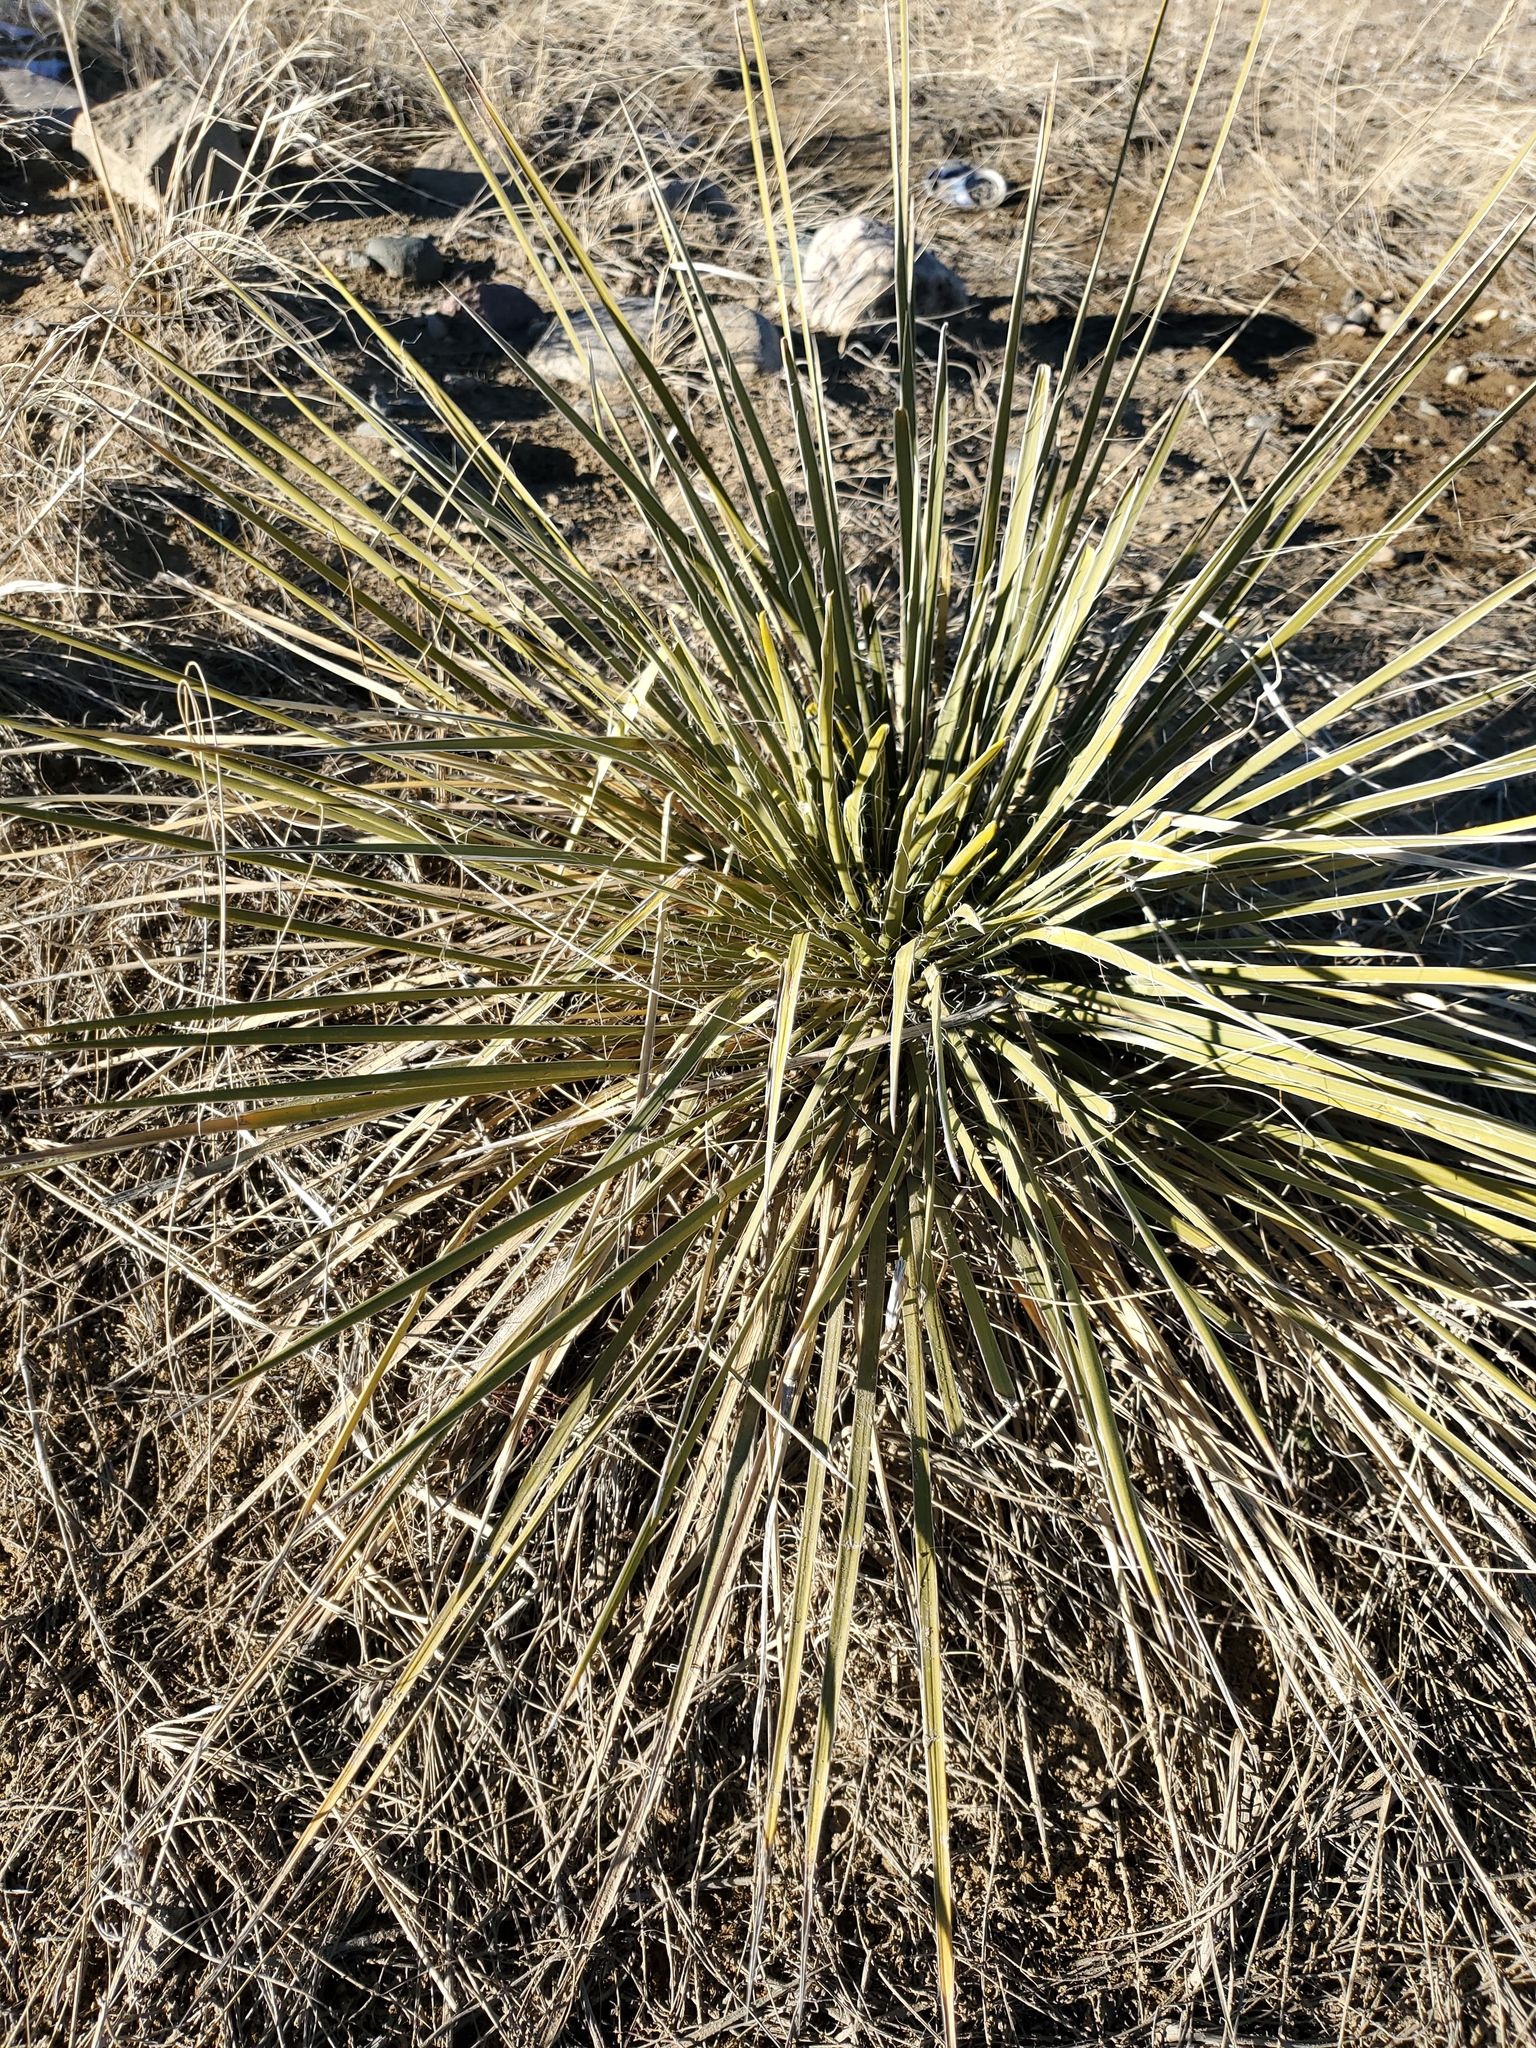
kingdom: Plantae
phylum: Tracheophyta
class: Liliopsida
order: Asparagales
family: Asparagaceae
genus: Yucca
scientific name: Yucca glauca
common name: Great plains yucca
